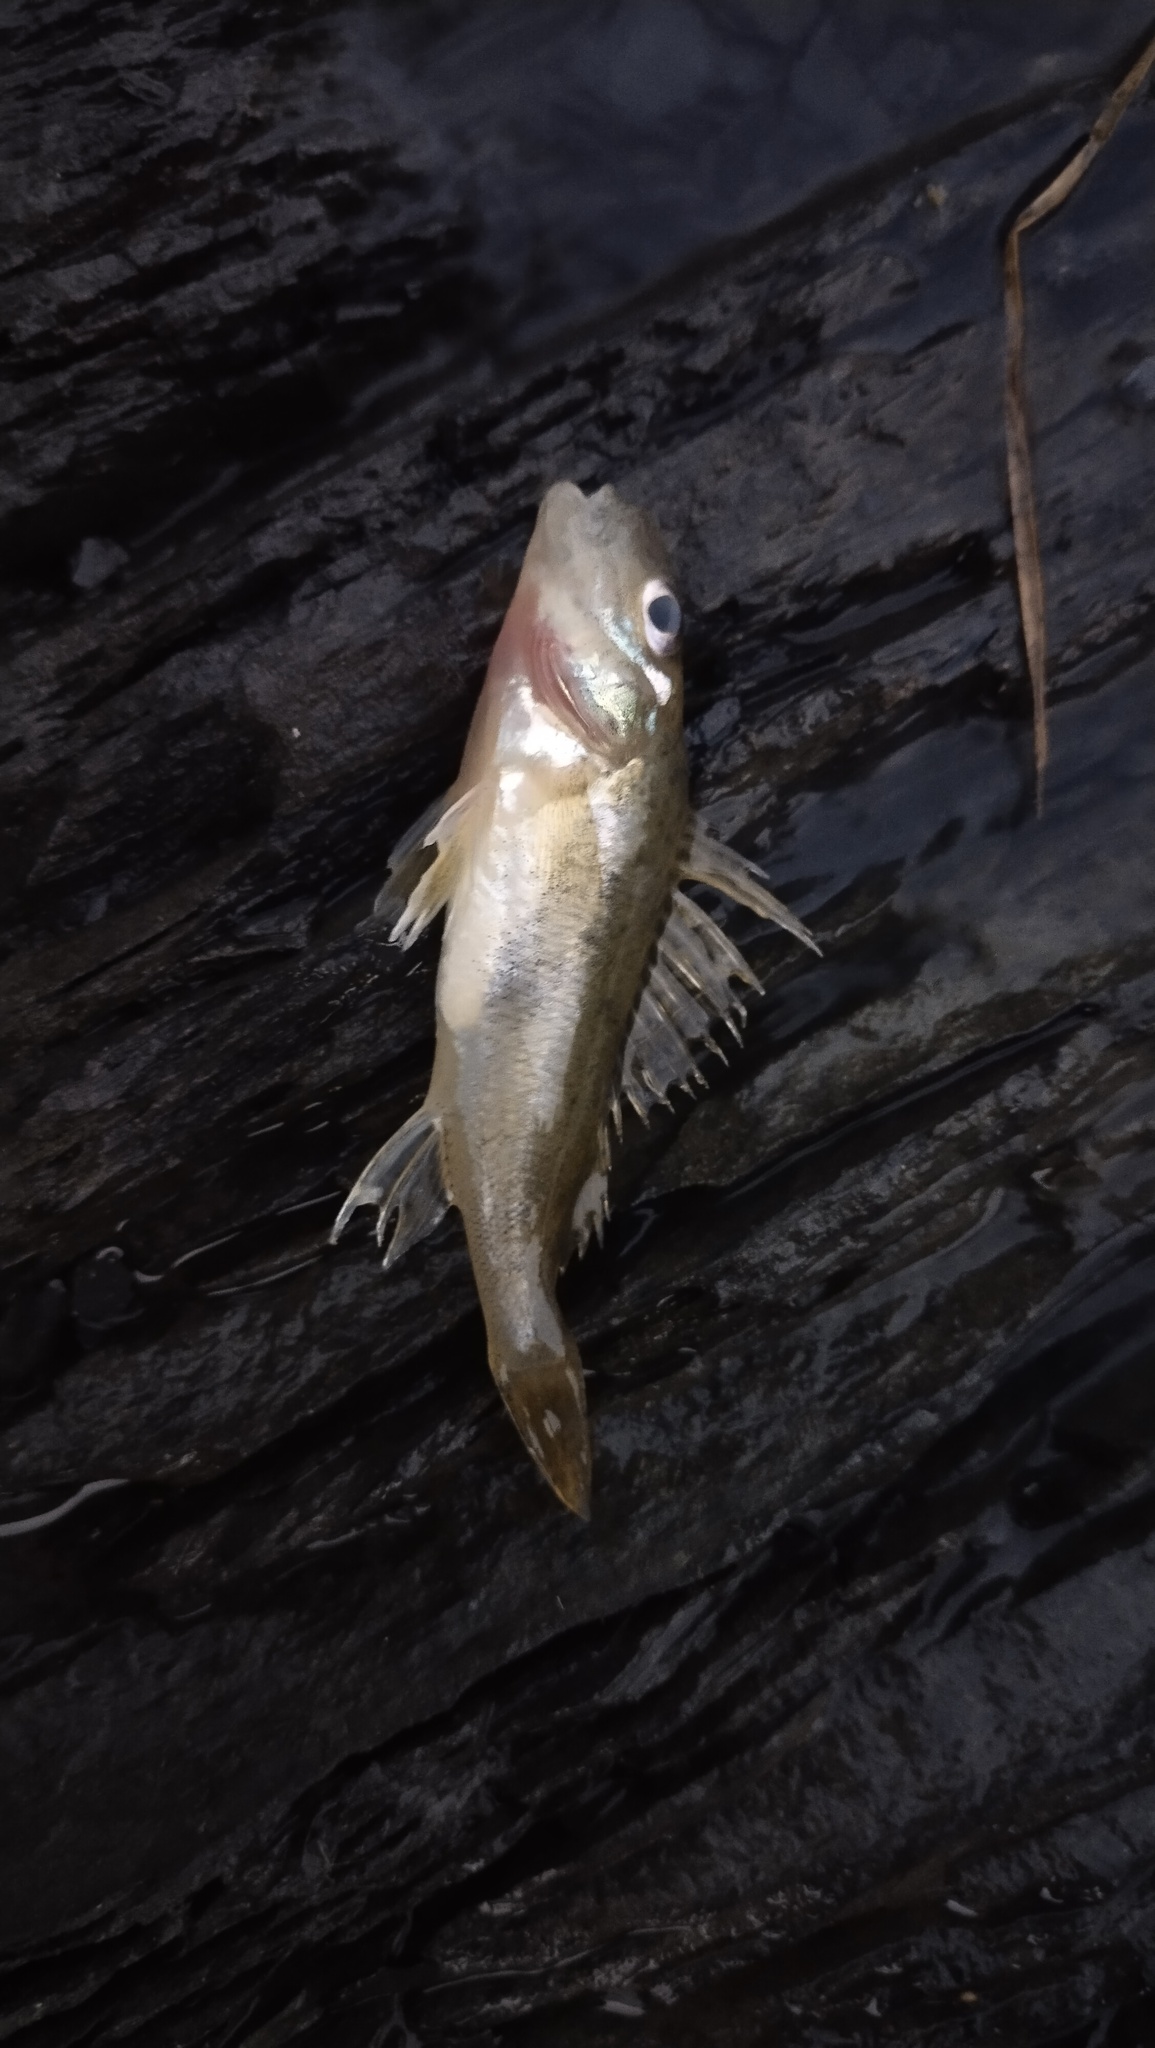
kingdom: Animalia
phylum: Chordata
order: Perciformes
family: Percidae
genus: Gymnocephalus
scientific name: Gymnocephalus cernua
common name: Ruffe
